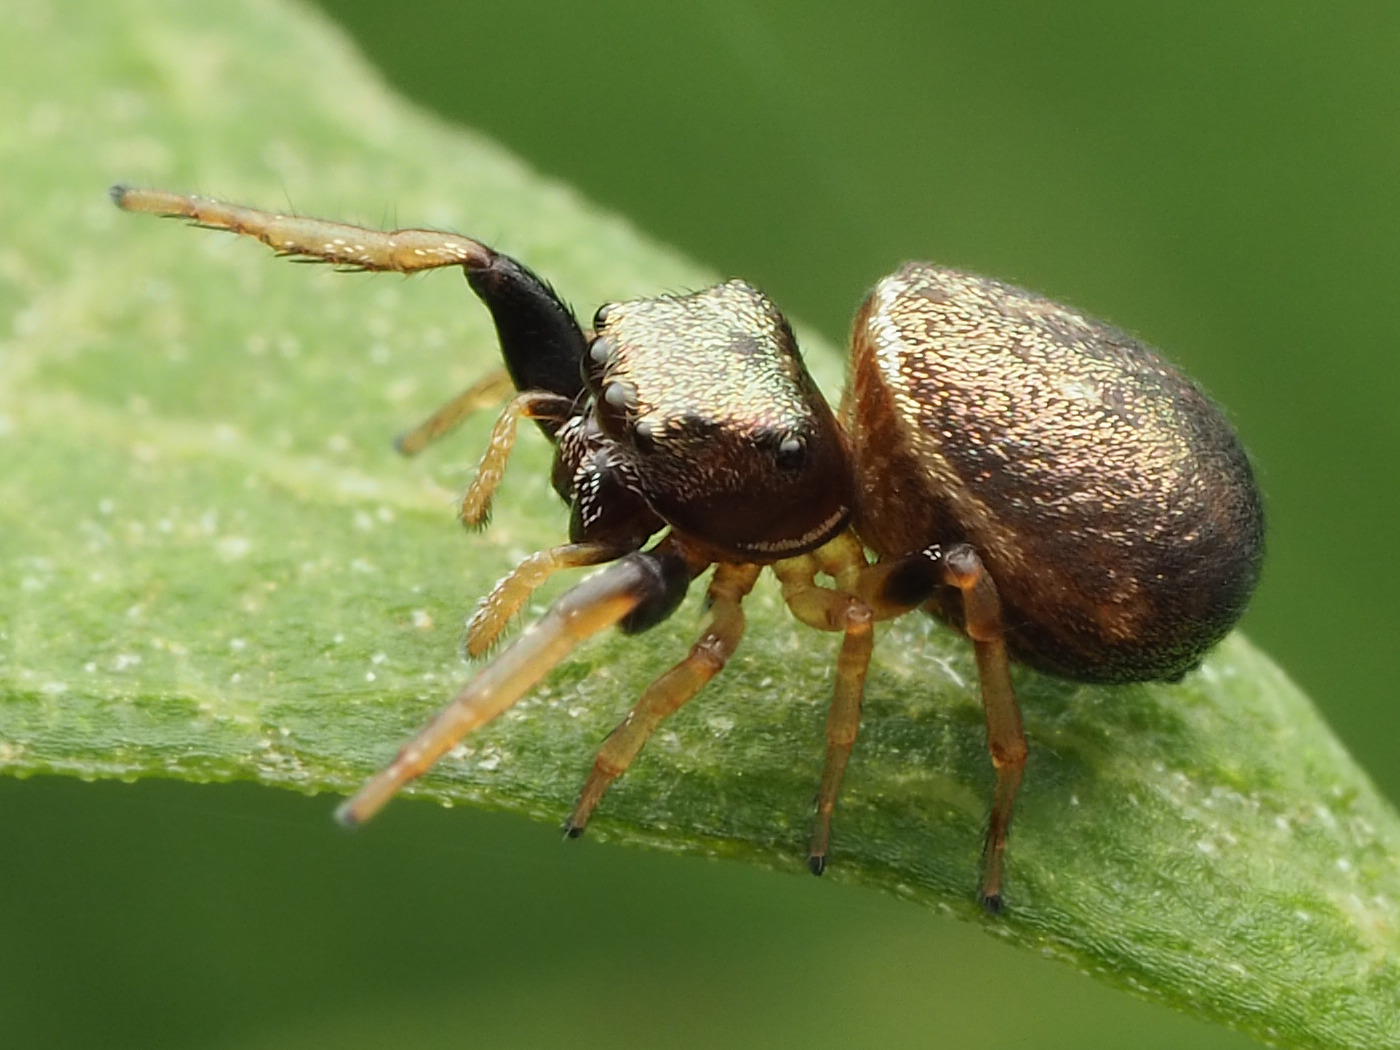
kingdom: Animalia
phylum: Arthropoda
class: Arachnida
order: Araneae
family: Salticidae
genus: Zygoballus
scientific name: Zygoballus sexpunctatus
